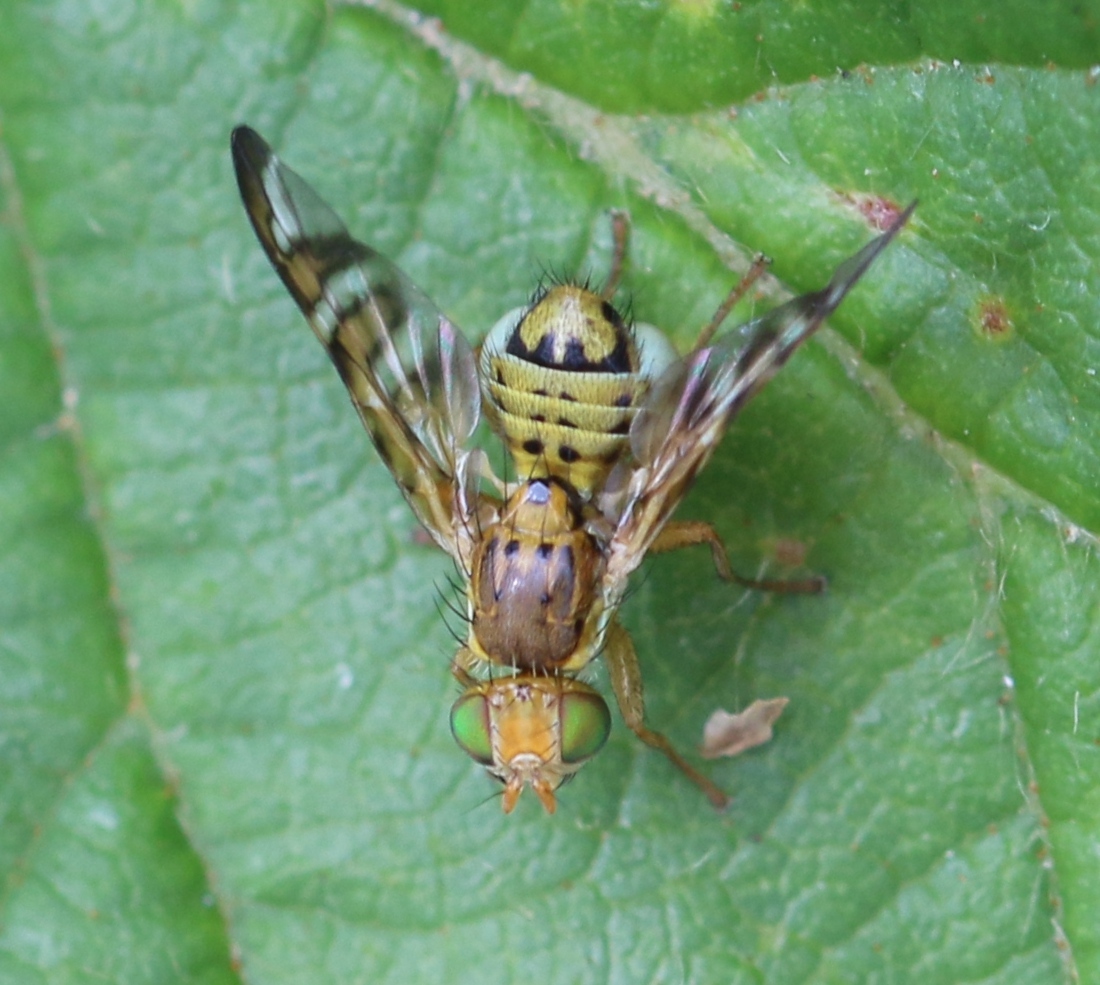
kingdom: Animalia
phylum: Arthropoda
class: Insecta
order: Diptera
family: Tephritidae
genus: Chaetostomella
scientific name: Chaetostomella cylindrica
